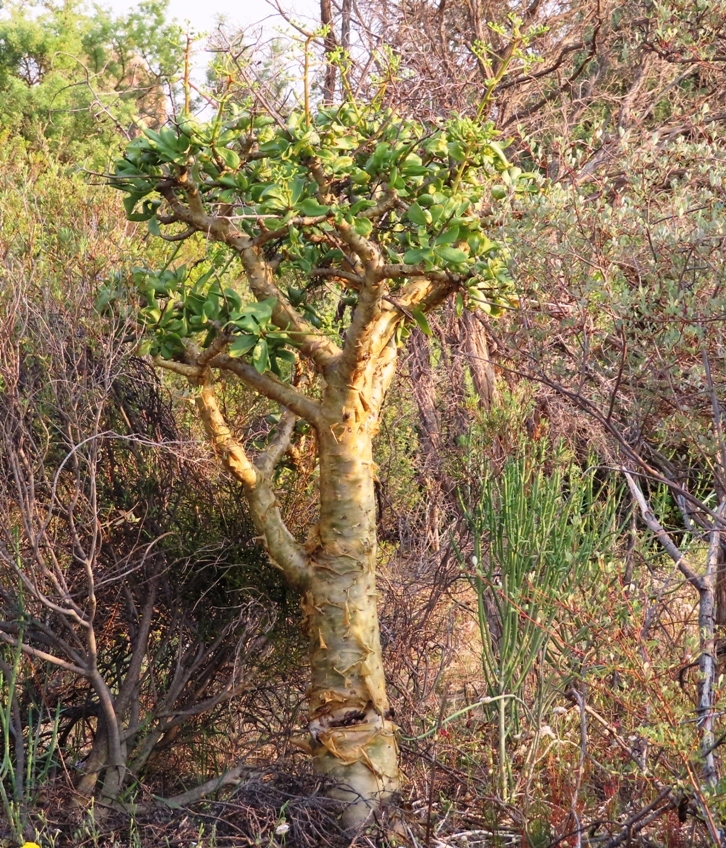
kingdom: Plantae
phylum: Tracheophyta
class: Magnoliopsida
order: Saxifragales
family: Crassulaceae
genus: Tylecodon
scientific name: Tylecodon paniculatus
